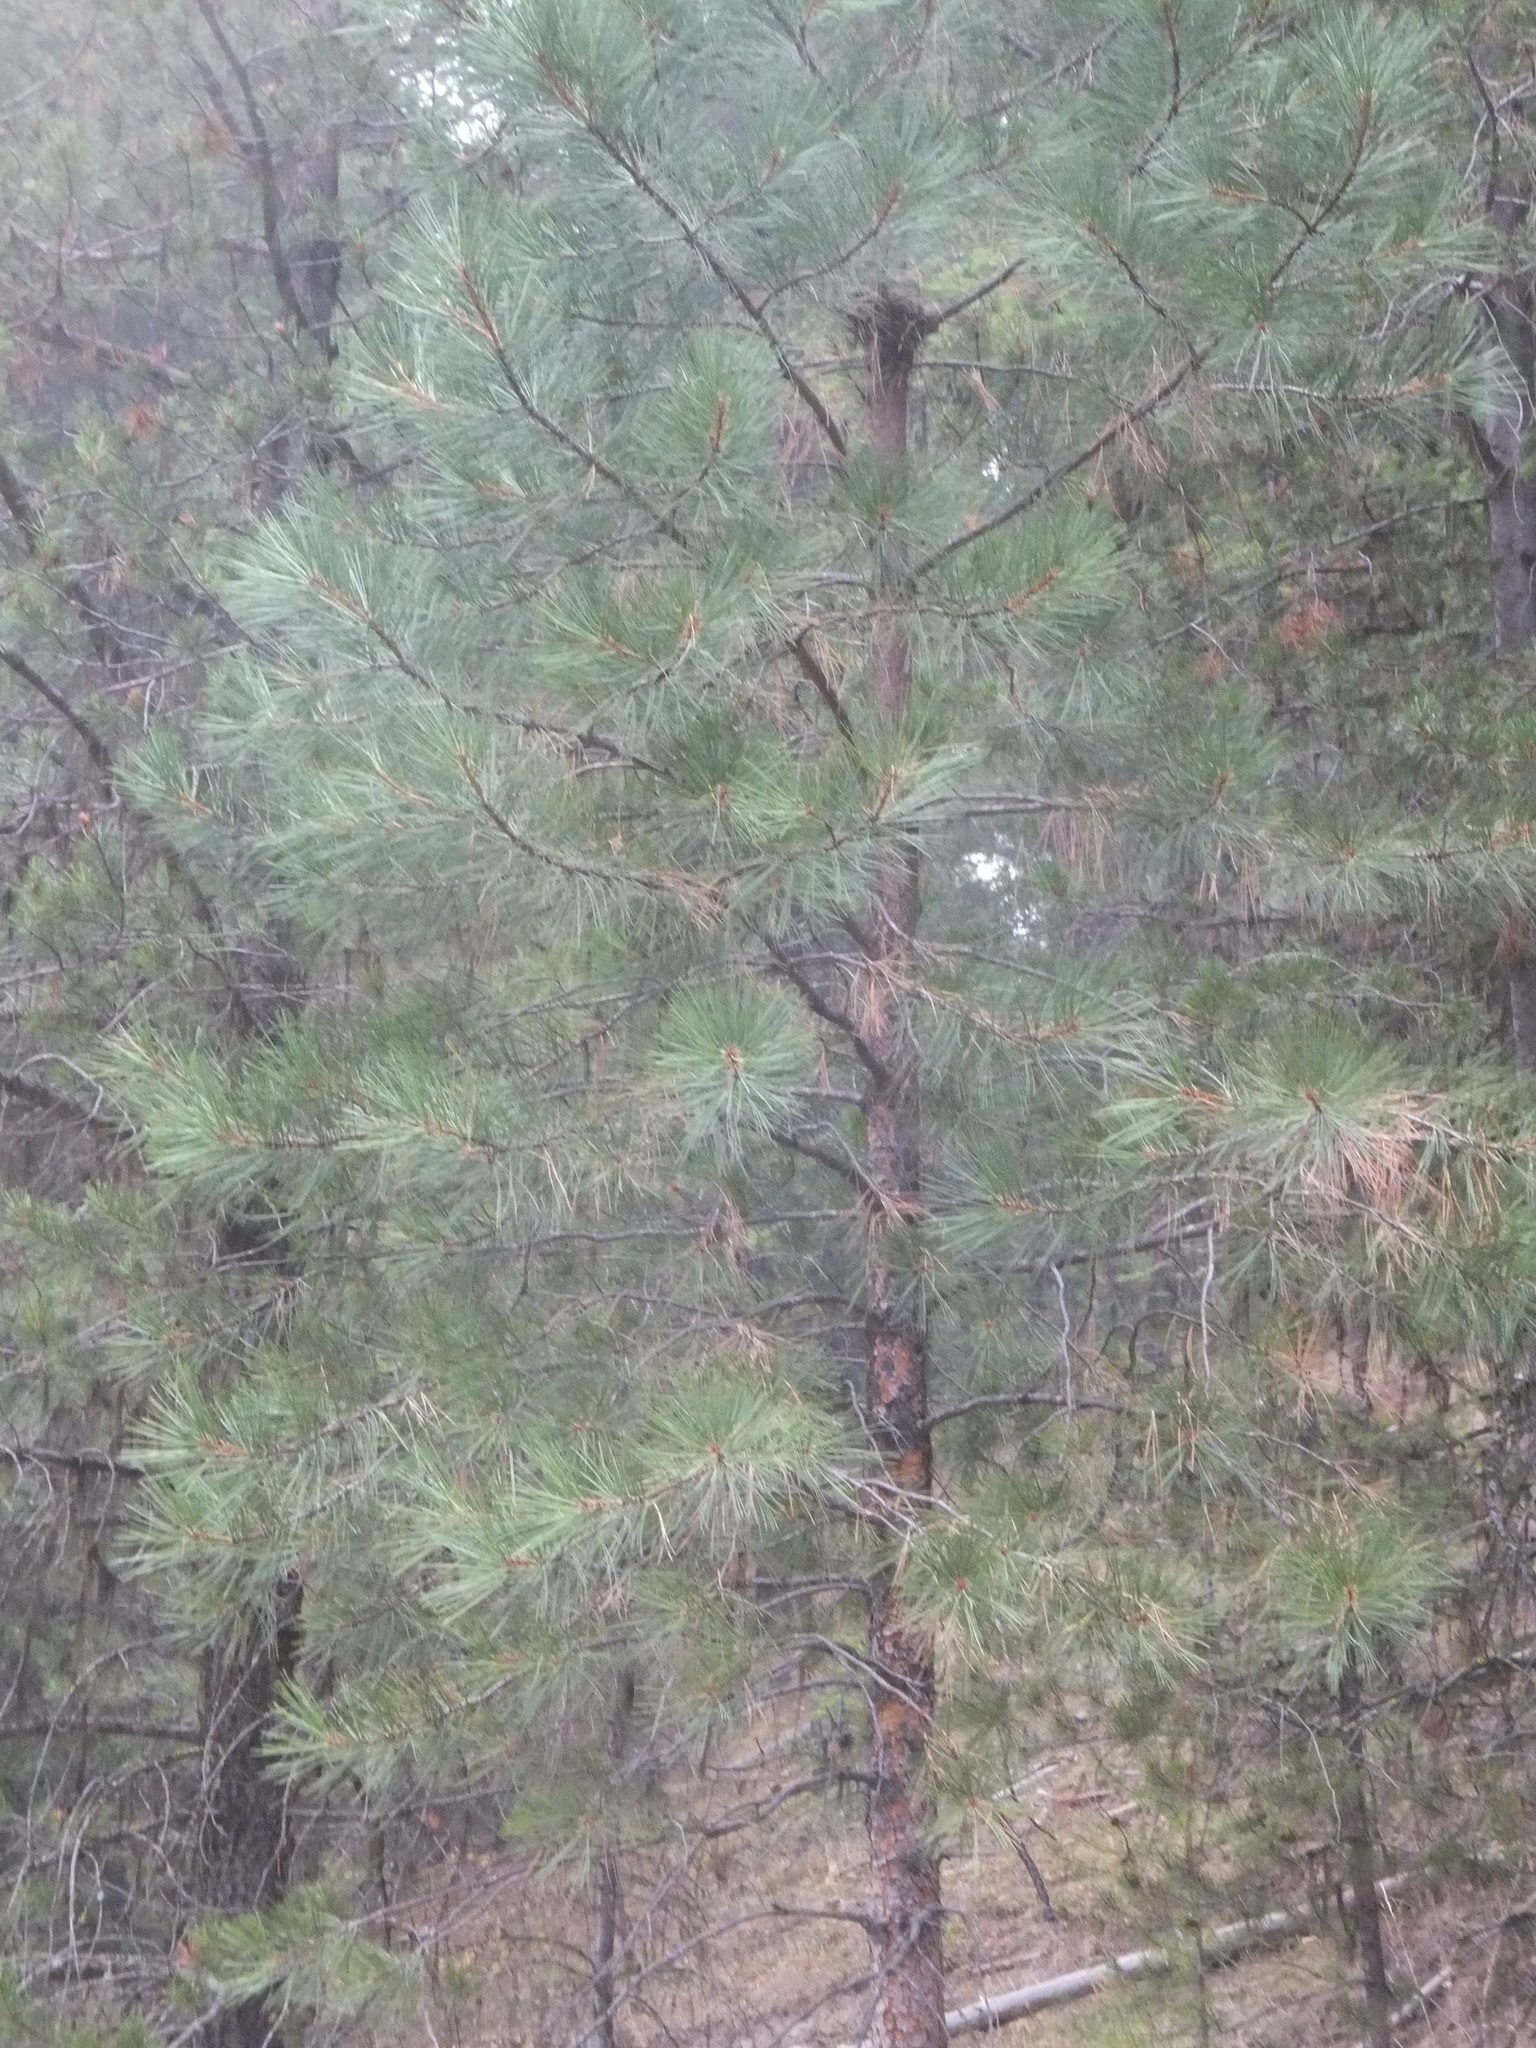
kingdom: Plantae
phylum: Tracheophyta
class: Pinopsida
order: Pinales
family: Pinaceae
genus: Pinus
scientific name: Pinus ponderosa
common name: Western yellow-pine
